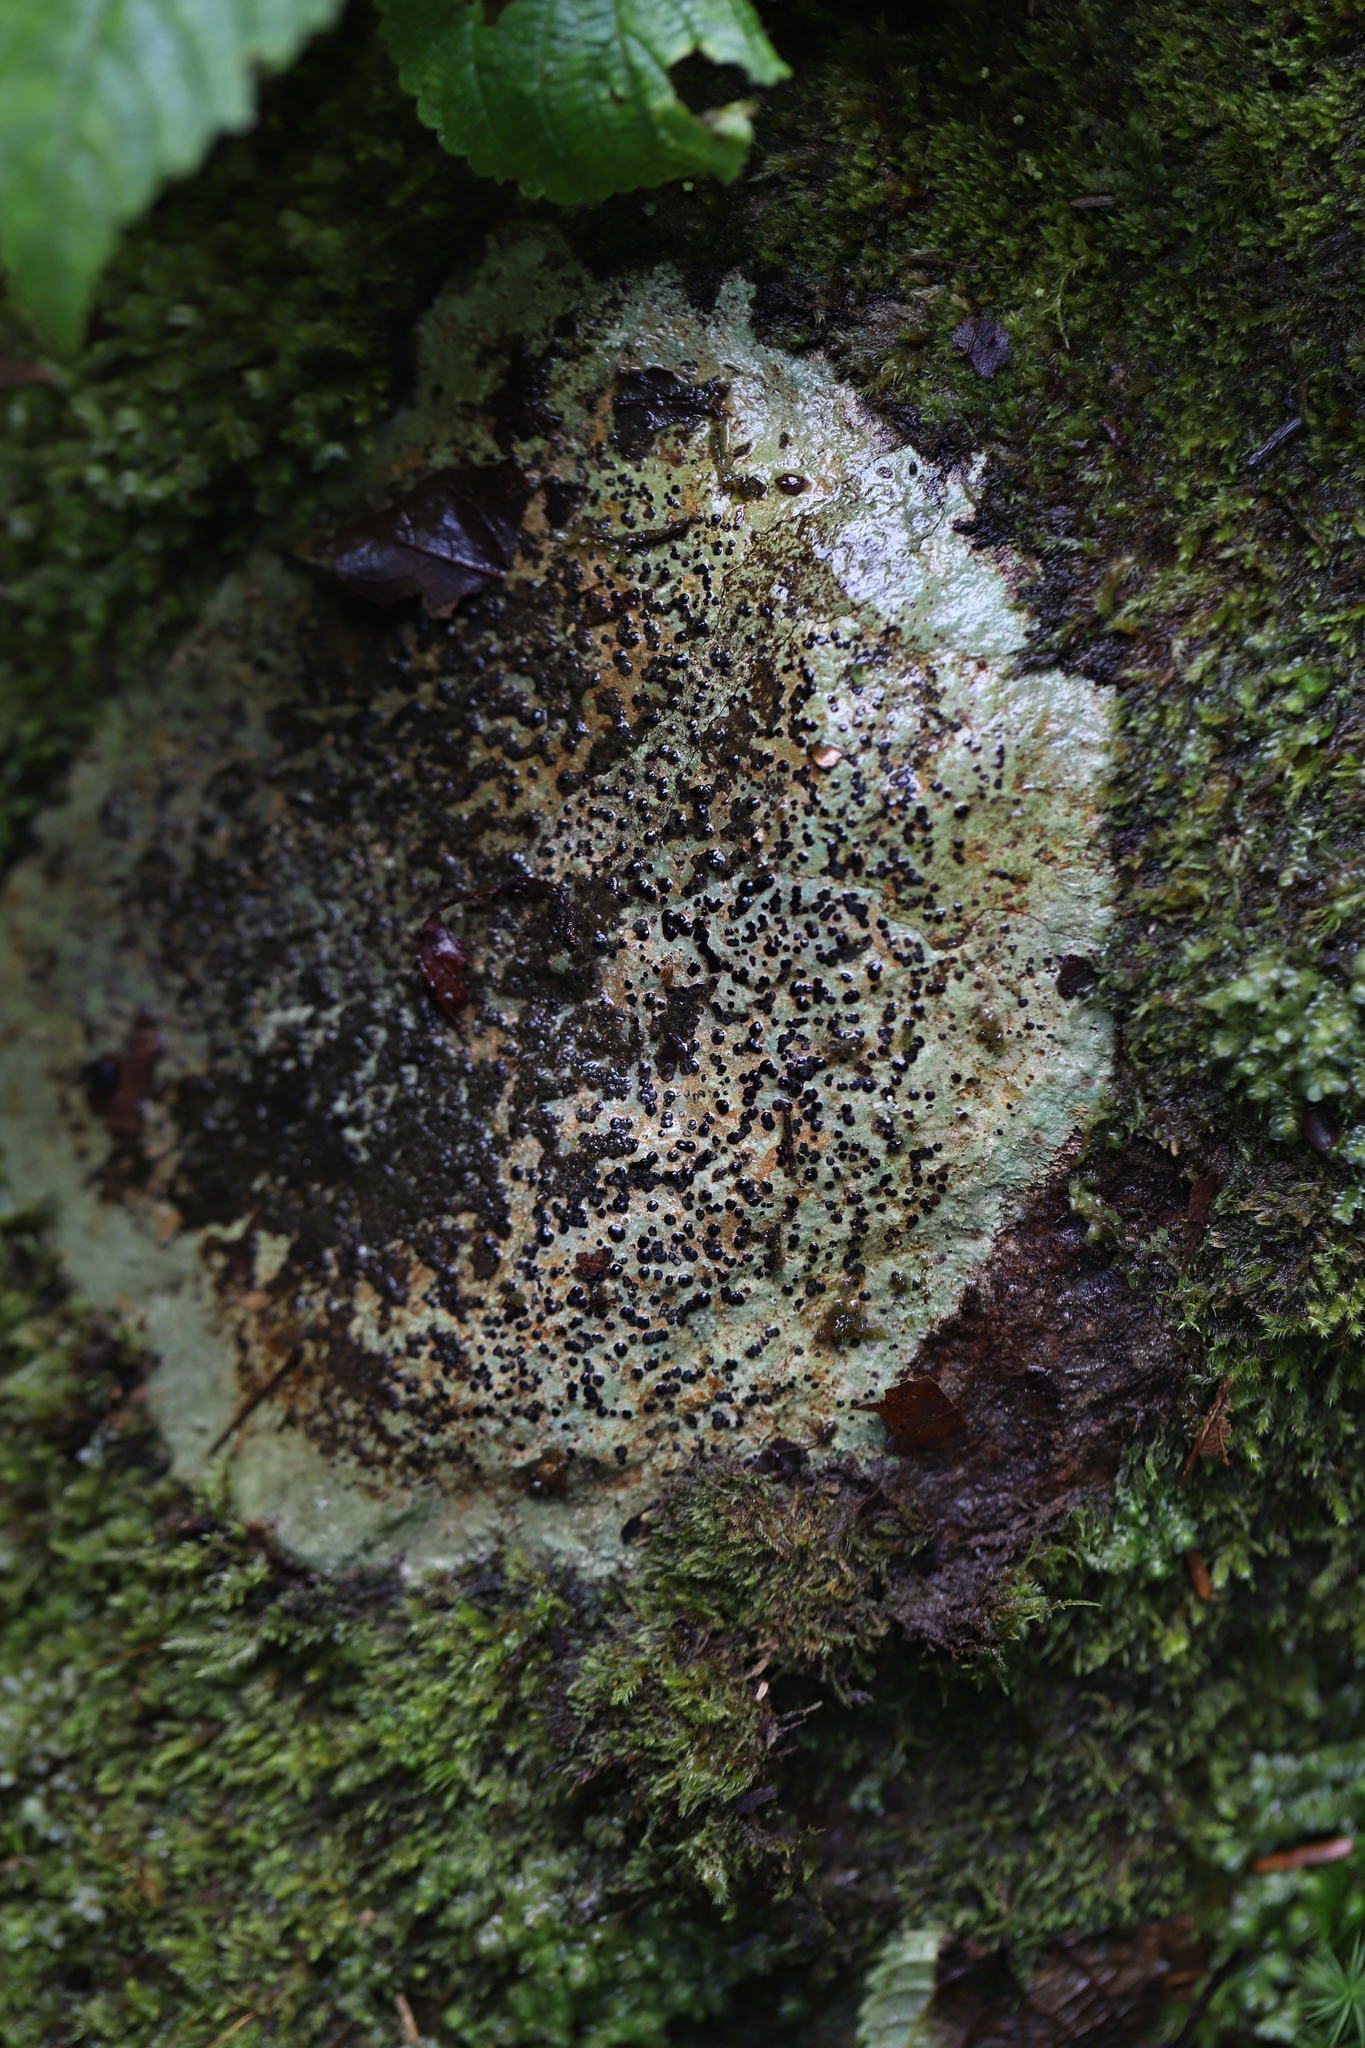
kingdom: Fungi
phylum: Ascomycota
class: Lecanoromycetes
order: Lecideales
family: Lecideaceae
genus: Porpidia
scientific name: Porpidia albocaerulescens
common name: Smokey-eyed boulder lichen
